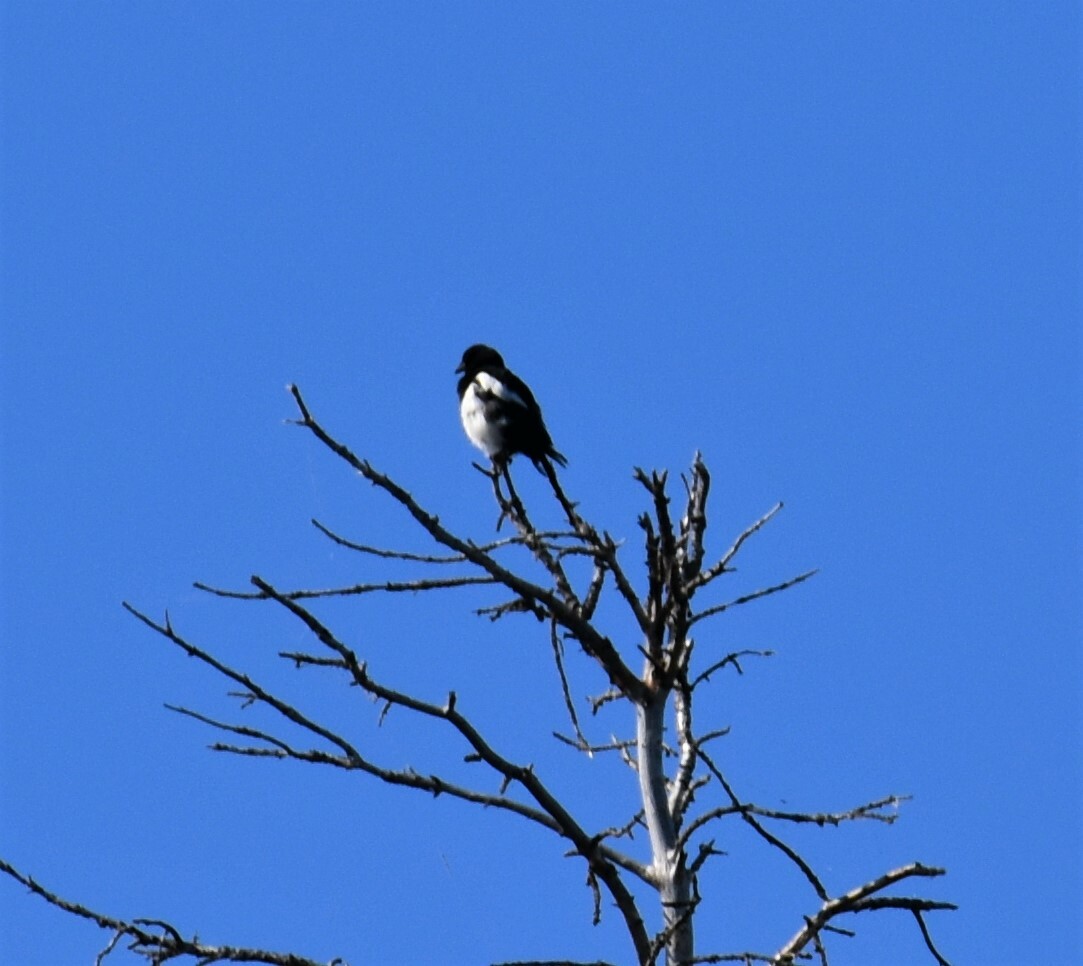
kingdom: Animalia
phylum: Chordata
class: Aves
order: Passeriformes
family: Corvidae
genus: Pica
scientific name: Pica hudsonia
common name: Black-billed magpie
